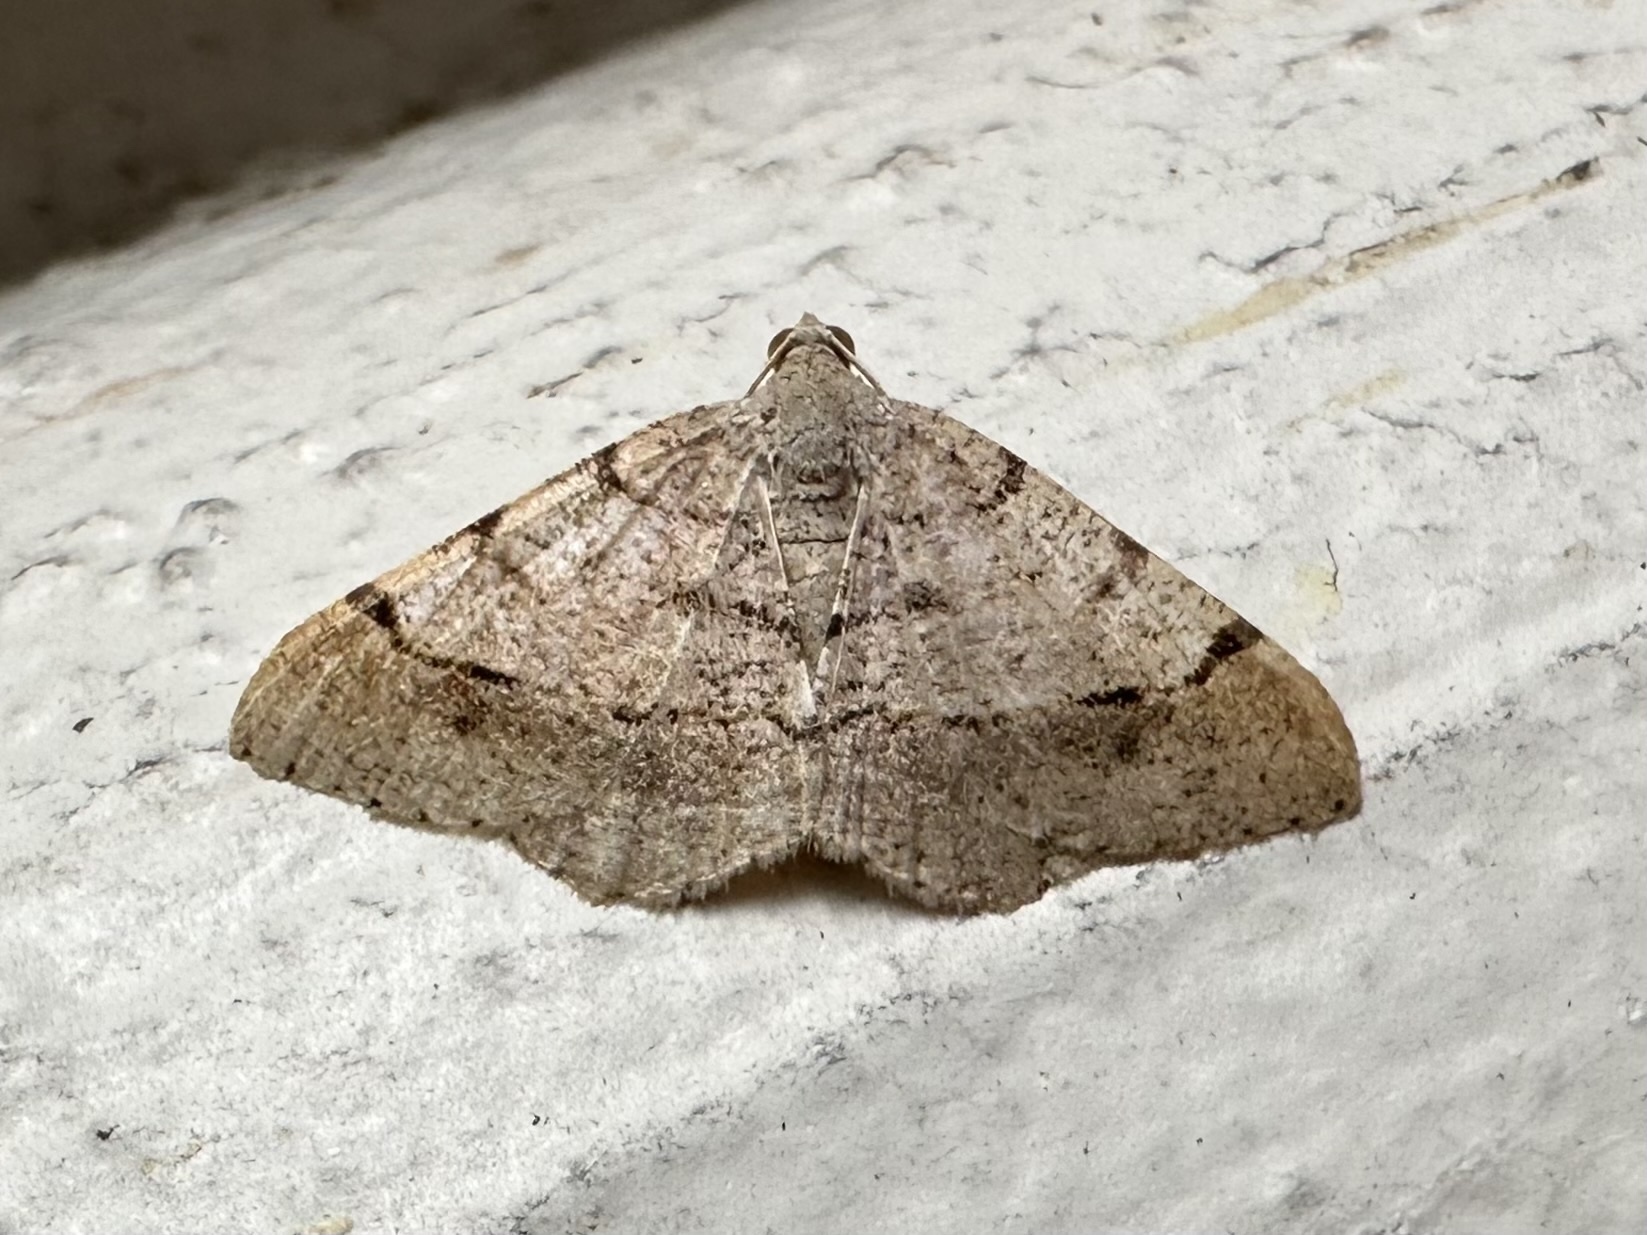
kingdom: Animalia
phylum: Arthropoda
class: Insecta
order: Lepidoptera
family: Geometridae
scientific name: Geometridae
